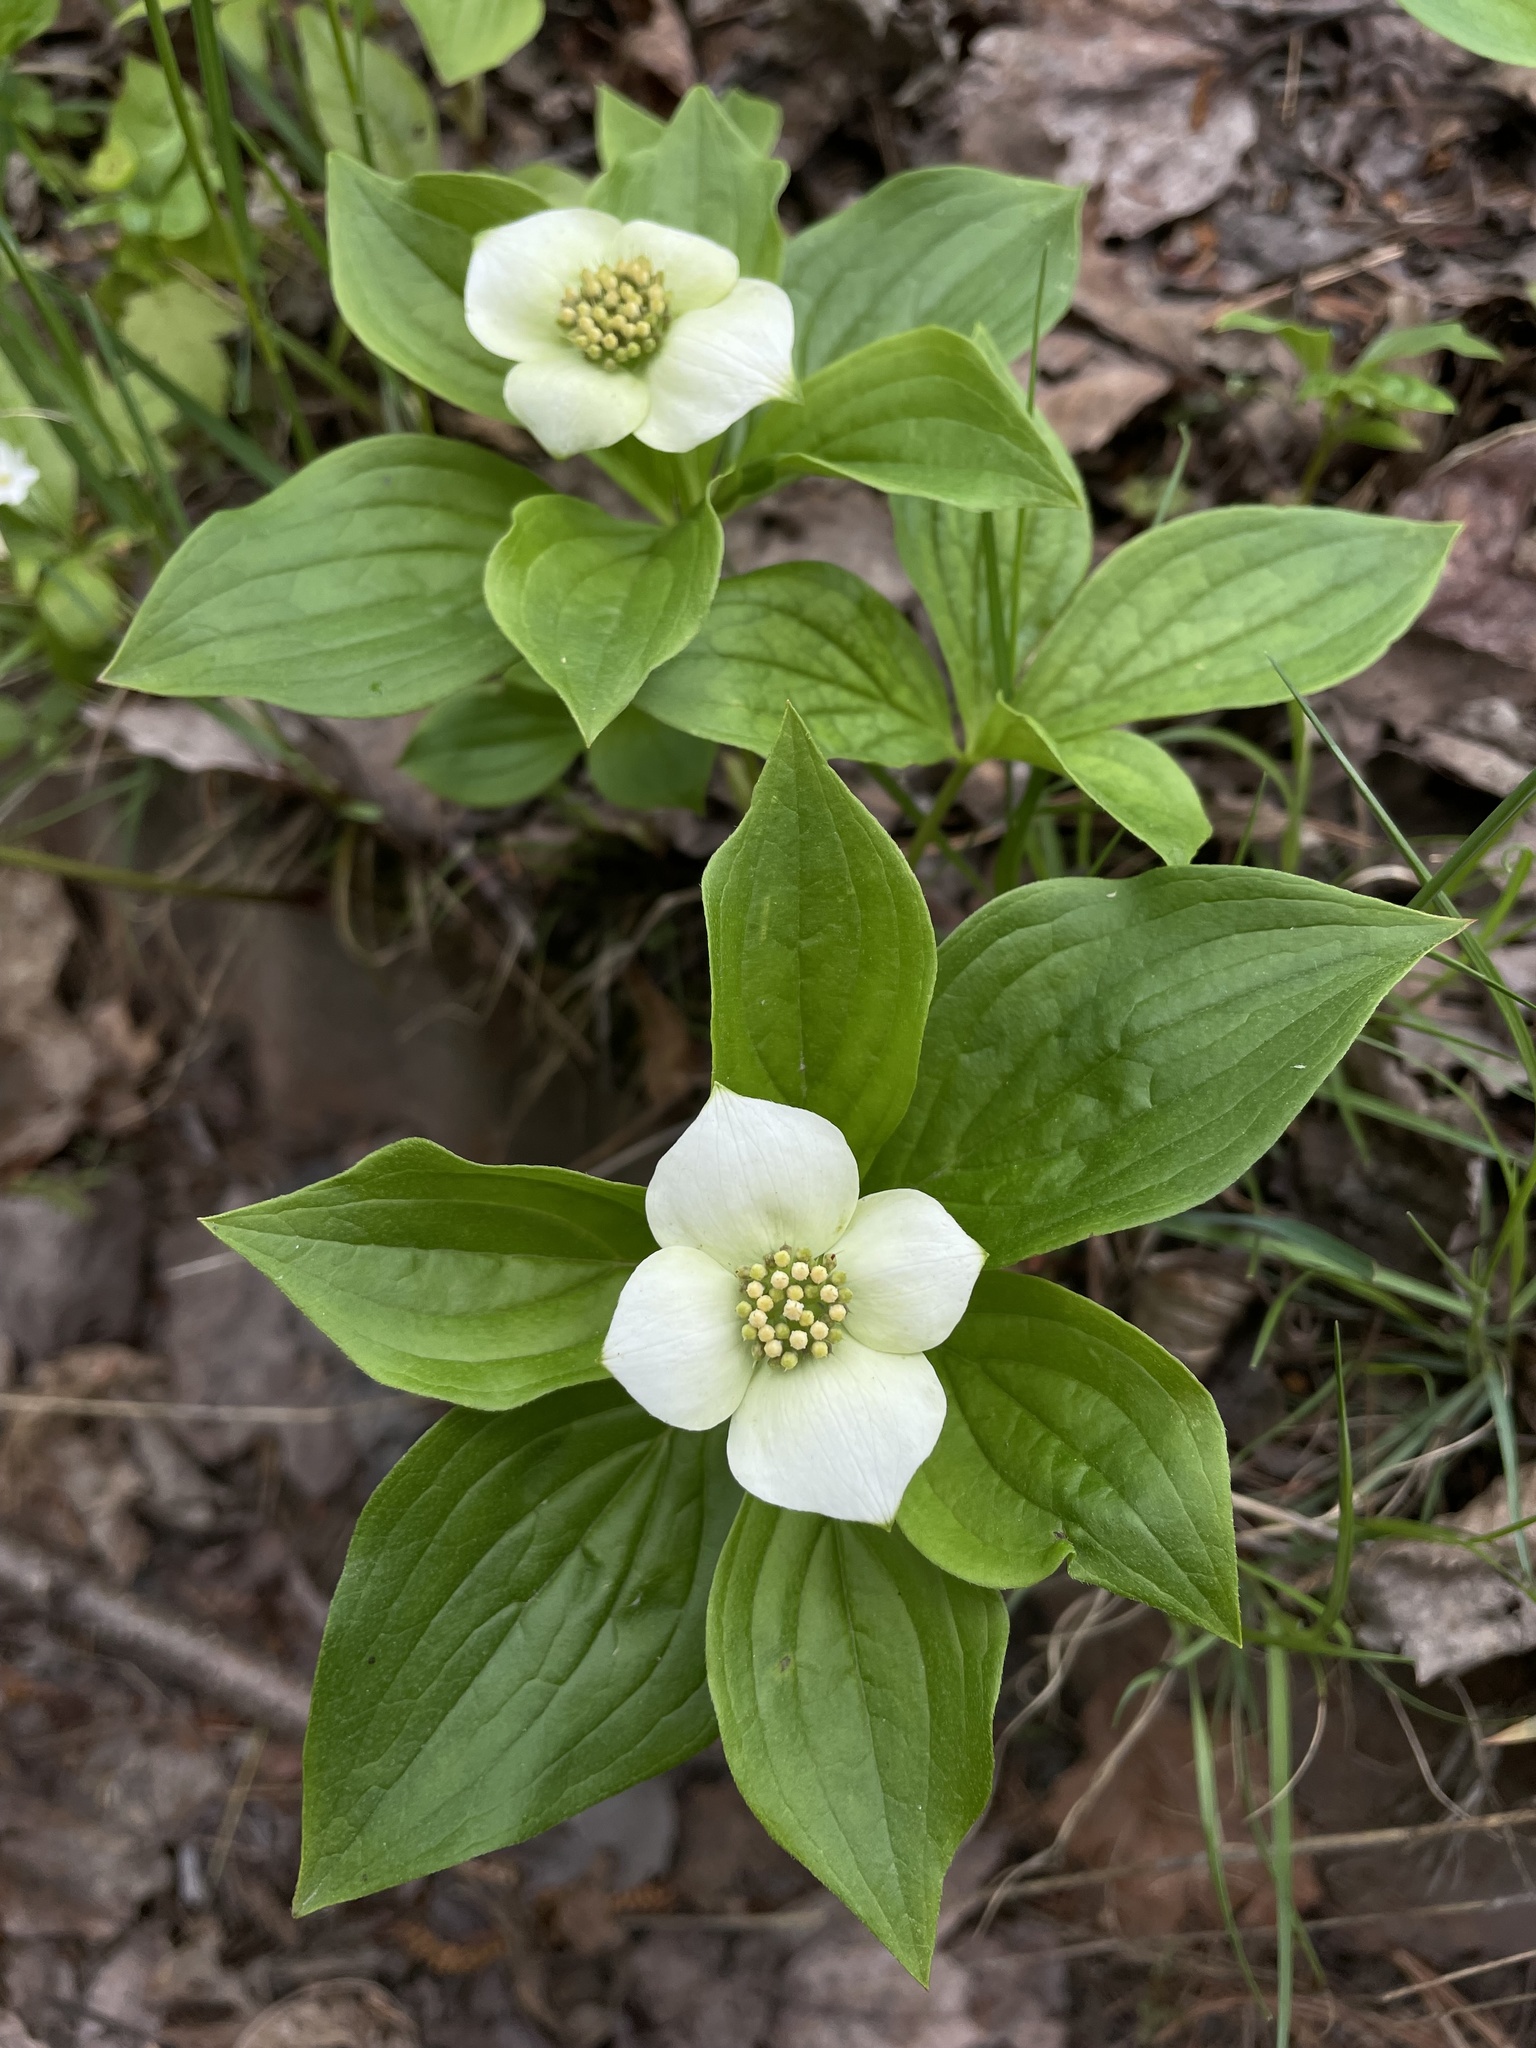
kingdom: Plantae
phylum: Tracheophyta
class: Magnoliopsida
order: Cornales
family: Cornaceae
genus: Cornus
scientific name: Cornus canadensis
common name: Creeping dogwood
